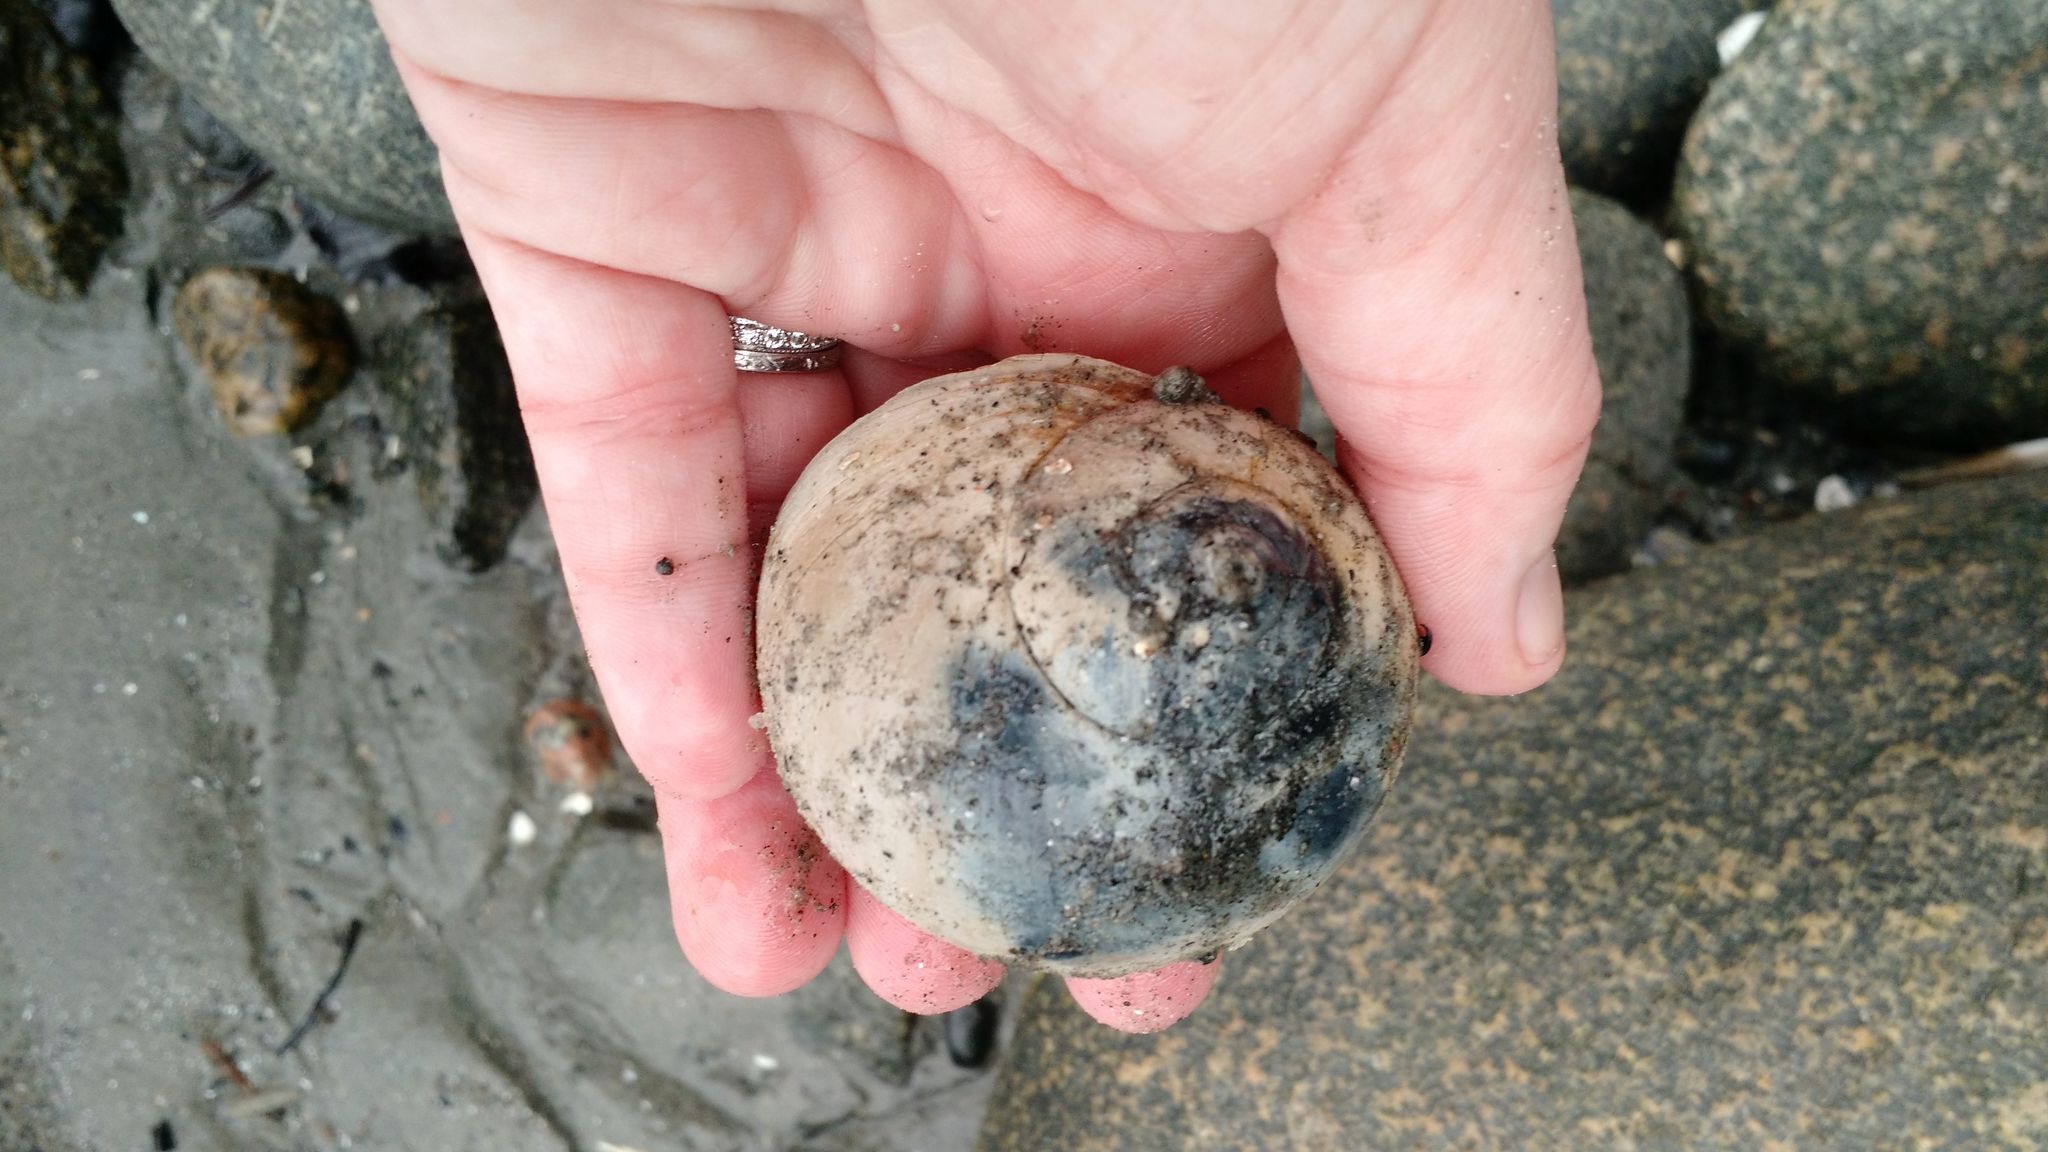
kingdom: Animalia
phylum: Mollusca
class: Gastropoda
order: Littorinimorpha
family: Naticidae
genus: Euspira
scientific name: Euspira heros
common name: Common northern moonsnail
